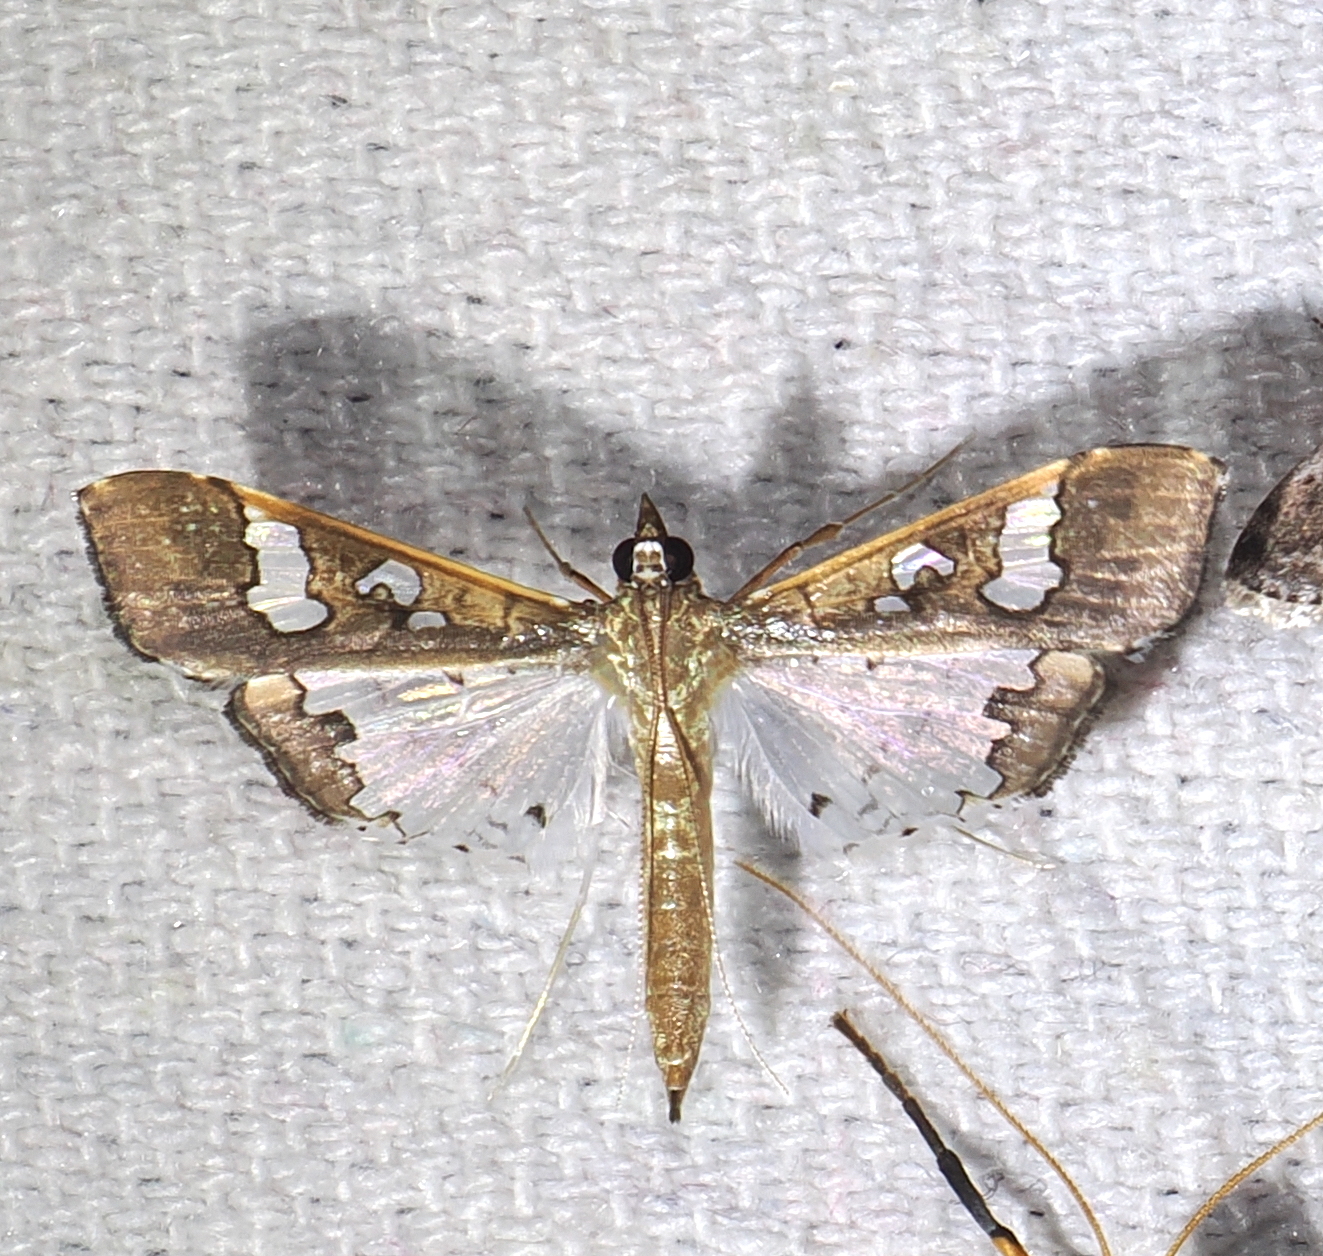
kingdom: Animalia
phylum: Arthropoda
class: Insecta
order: Lepidoptera
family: Crambidae
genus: Maruca
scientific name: Maruca vitrata
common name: Maruca pod borer
